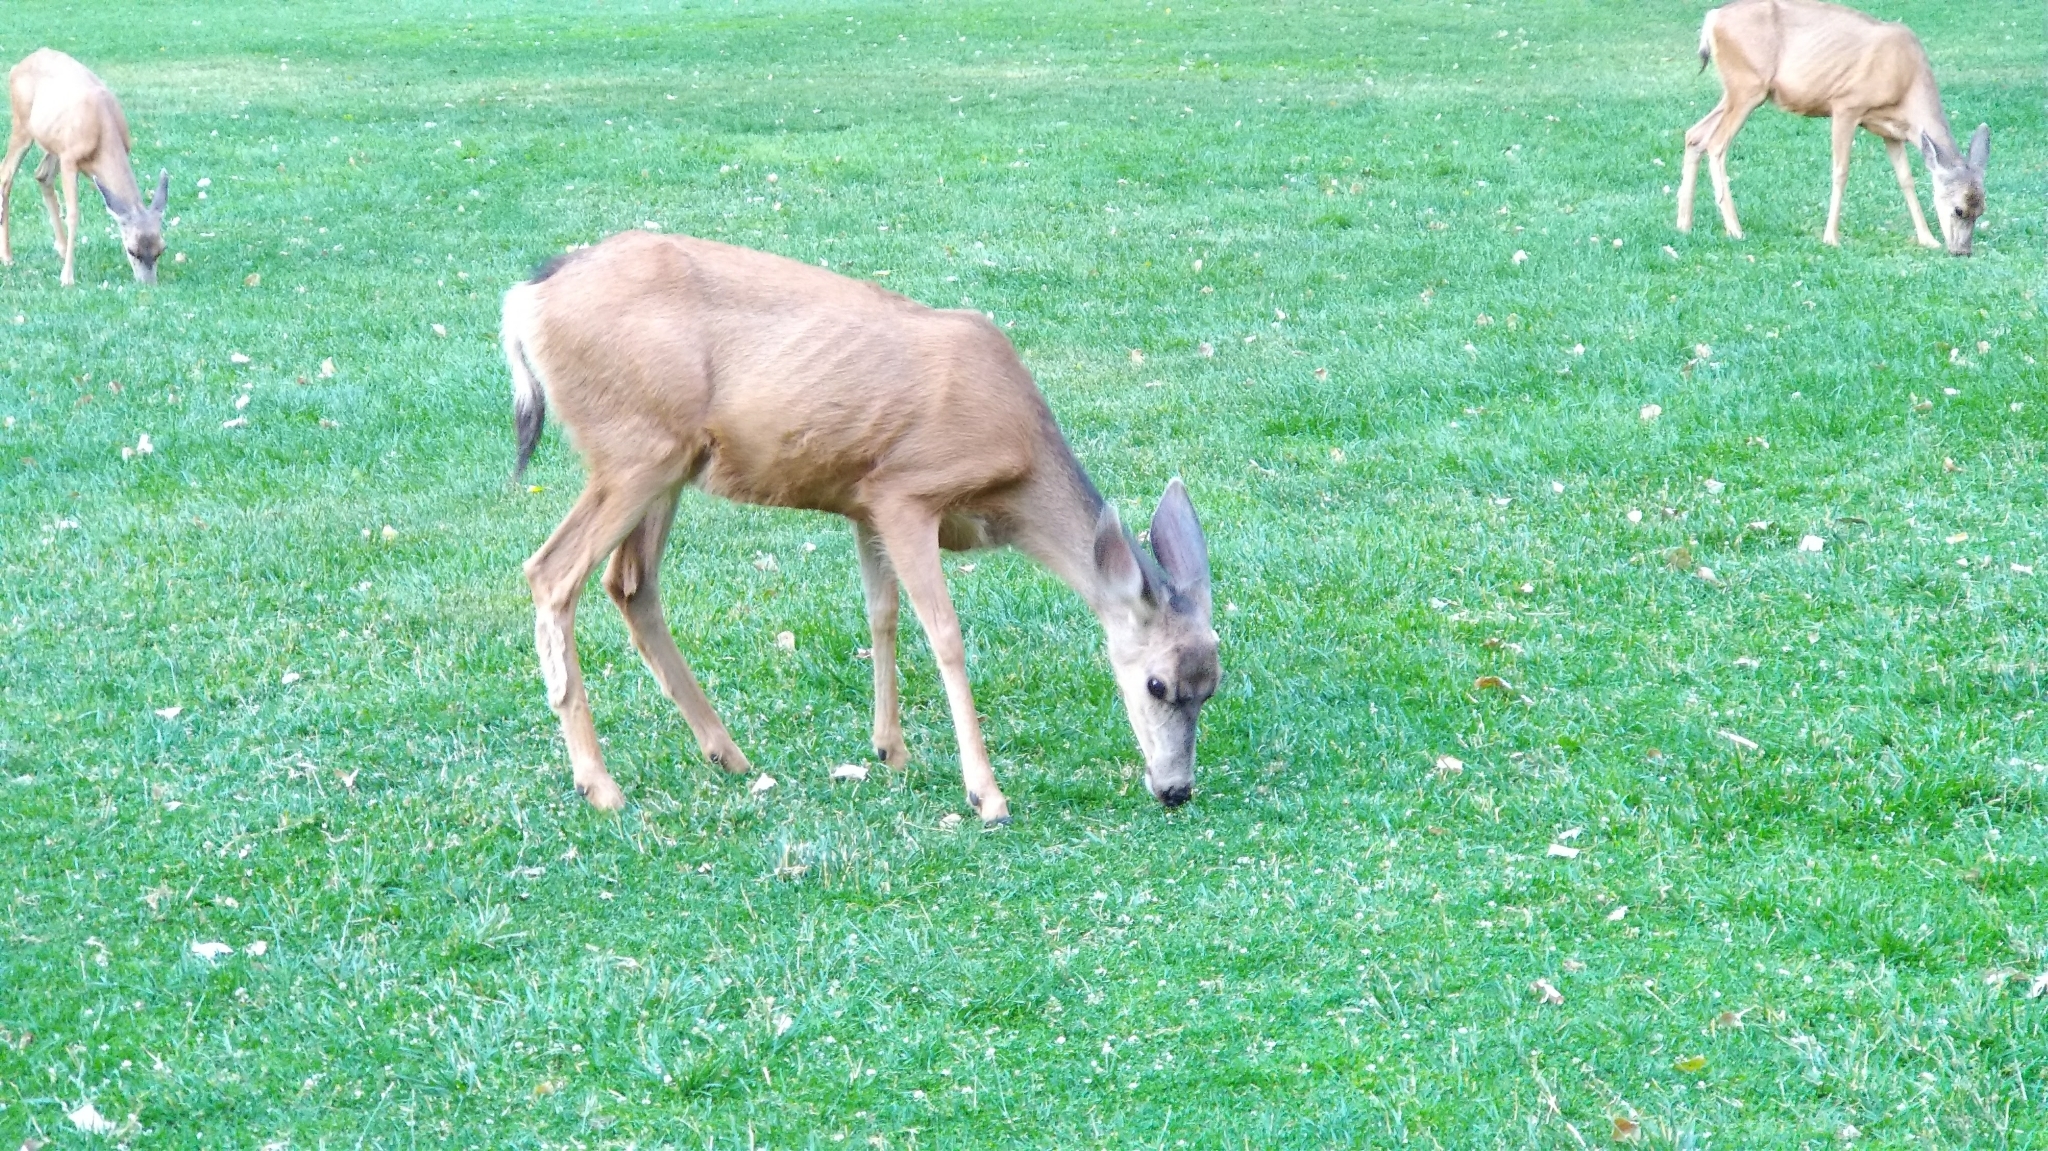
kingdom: Animalia
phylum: Chordata
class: Mammalia
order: Artiodactyla
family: Cervidae
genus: Odocoileus
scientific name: Odocoileus hemionus
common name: Mule deer
